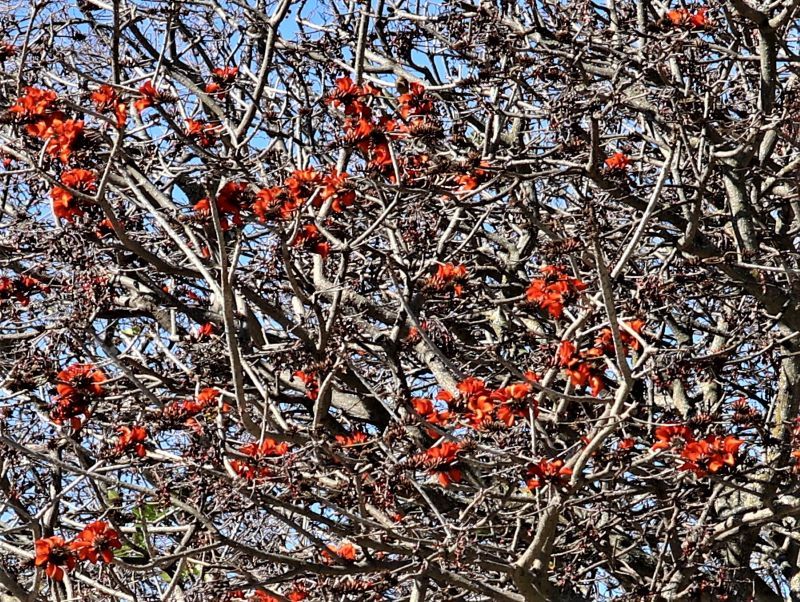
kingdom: Plantae
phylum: Tracheophyta
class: Magnoliopsida
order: Fabales
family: Fabaceae
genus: Erythrina
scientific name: Erythrina caffra
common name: Coast coral tree
